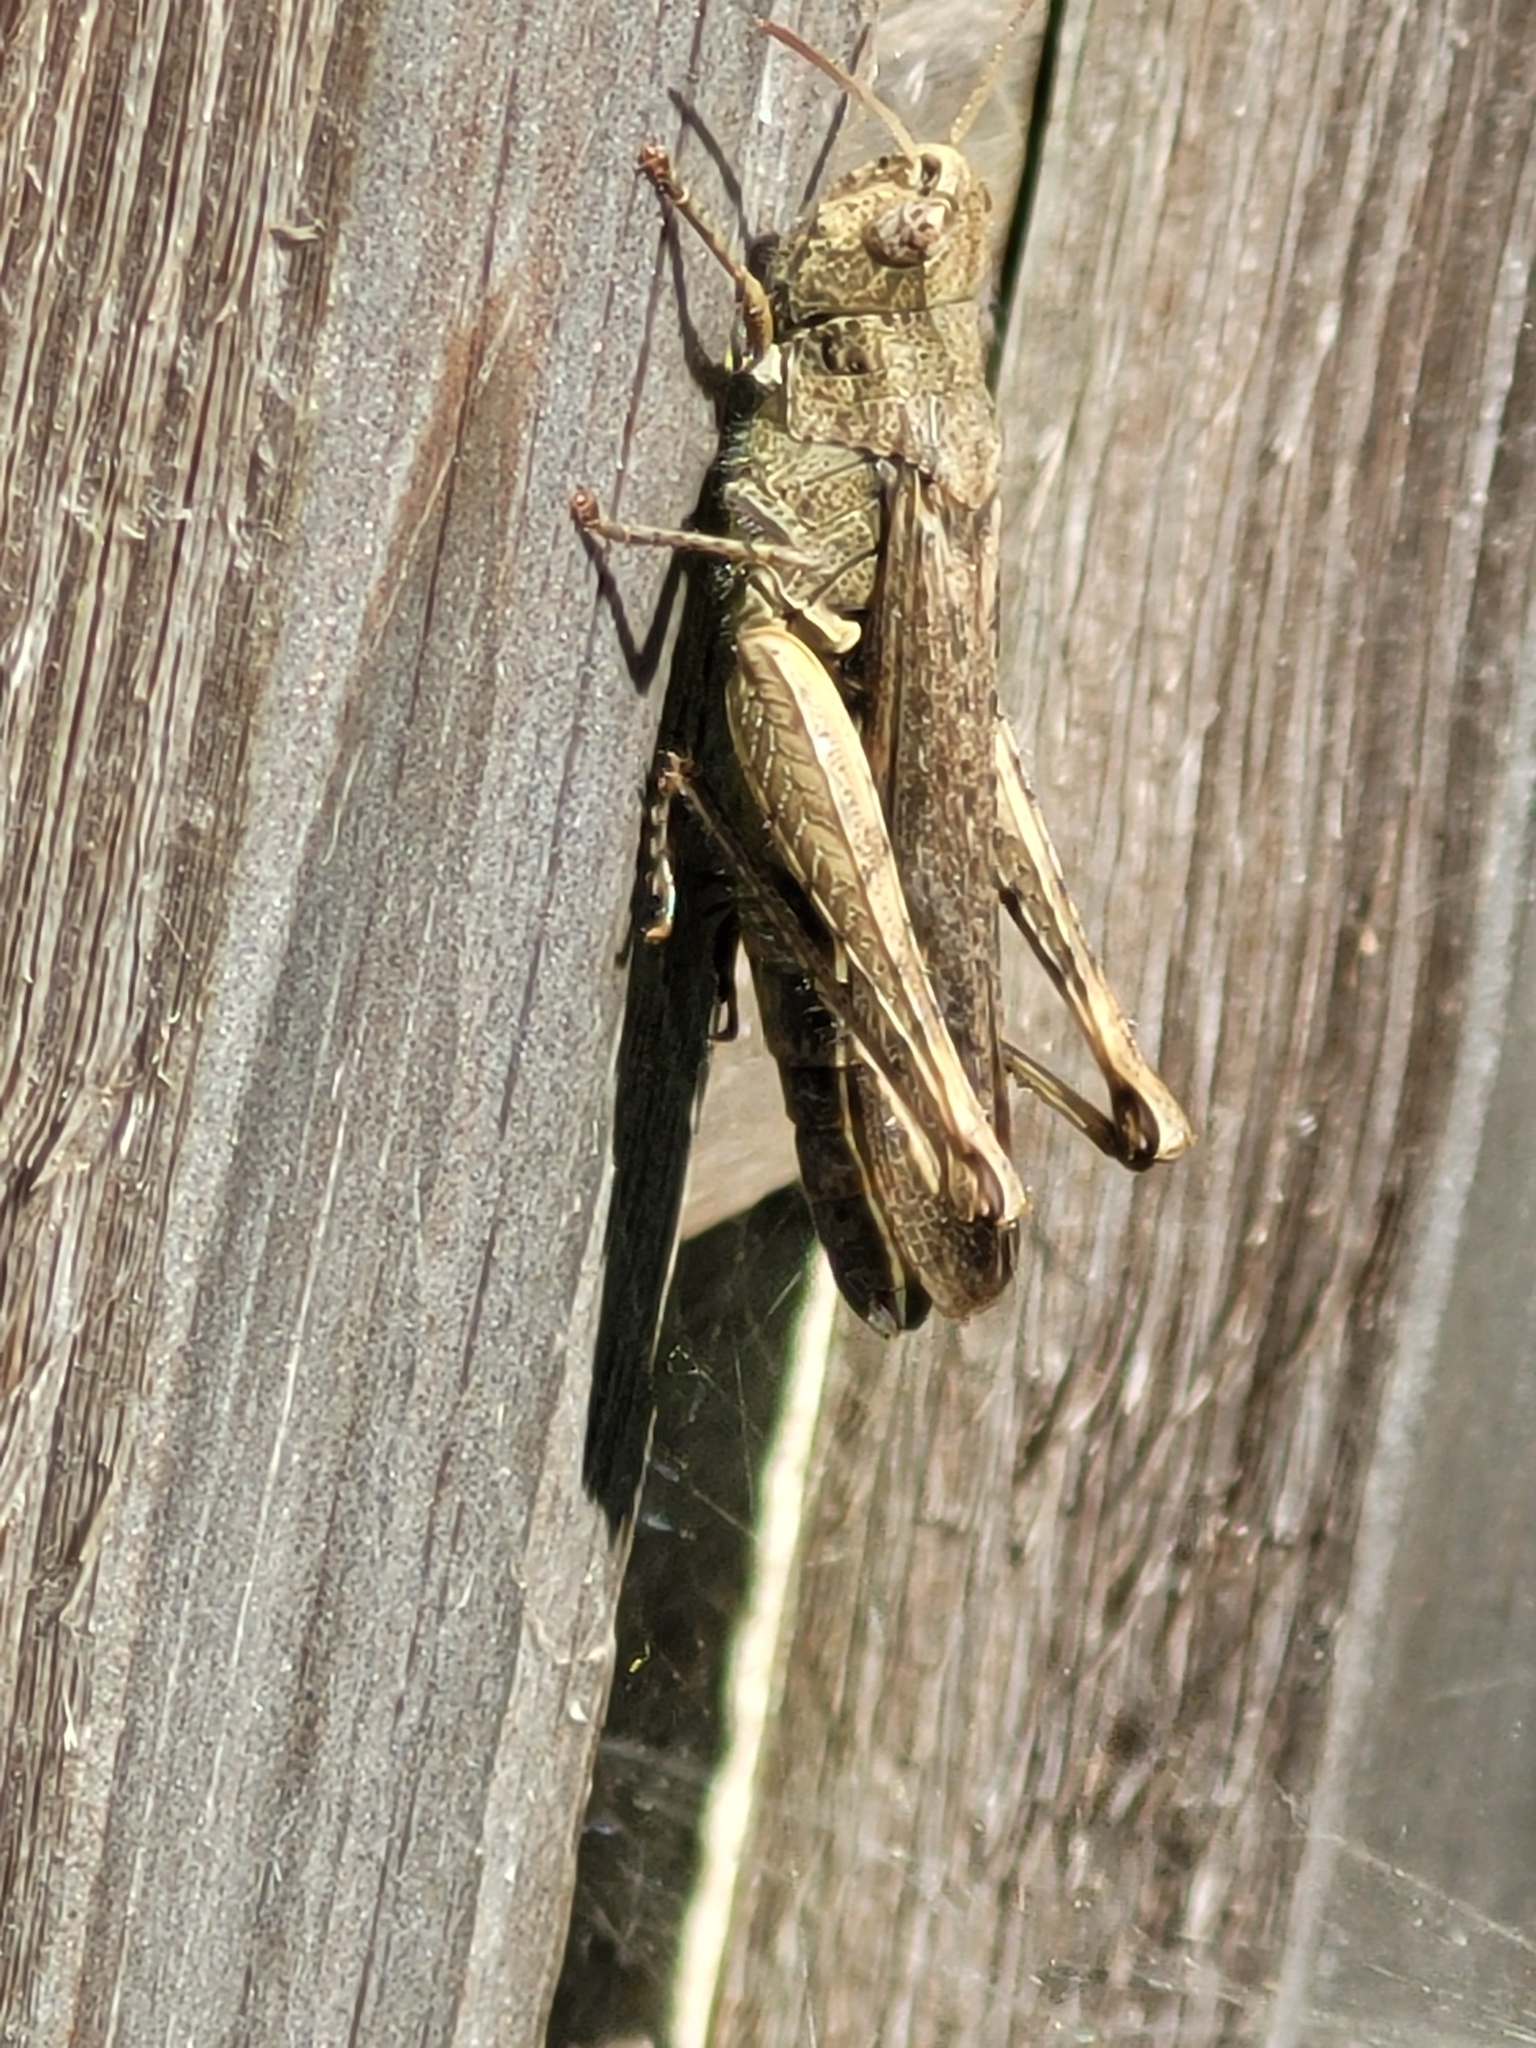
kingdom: Animalia
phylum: Arthropoda
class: Insecta
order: Orthoptera
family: Acrididae
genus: Chorthippus
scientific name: Chorthippus brunneus
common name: Field grasshopper
